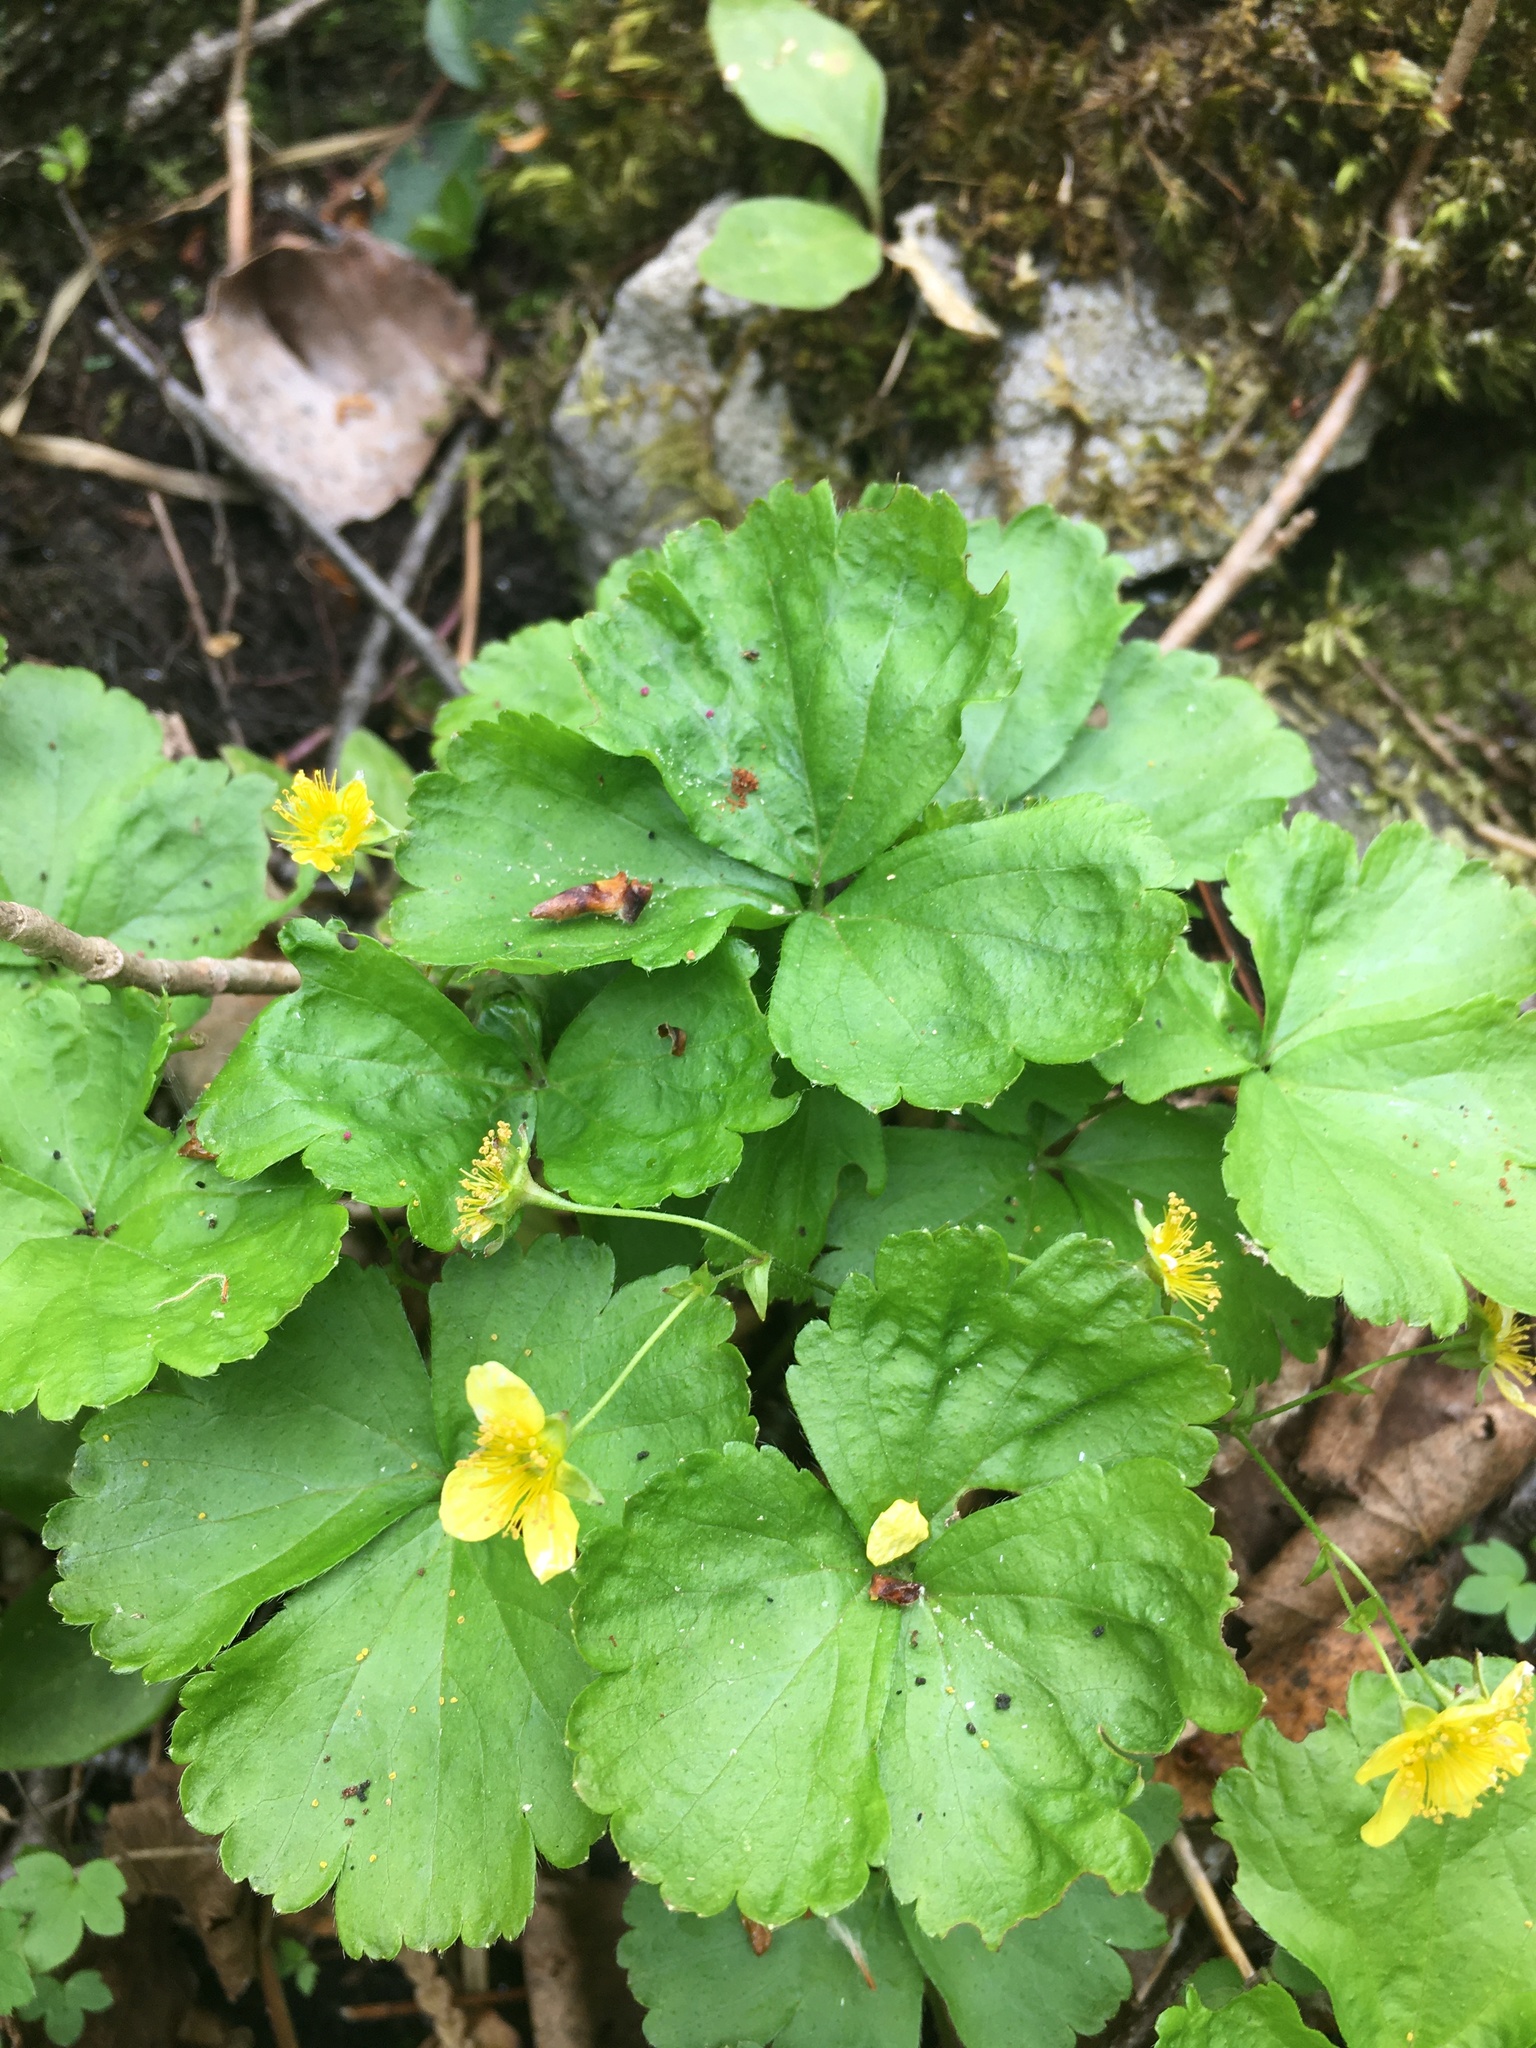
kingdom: Plantae
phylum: Tracheophyta
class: Magnoliopsida
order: Rosales
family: Rosaceae
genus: Geum
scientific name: Geum fragarioides
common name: Appalachian barren strawberry
